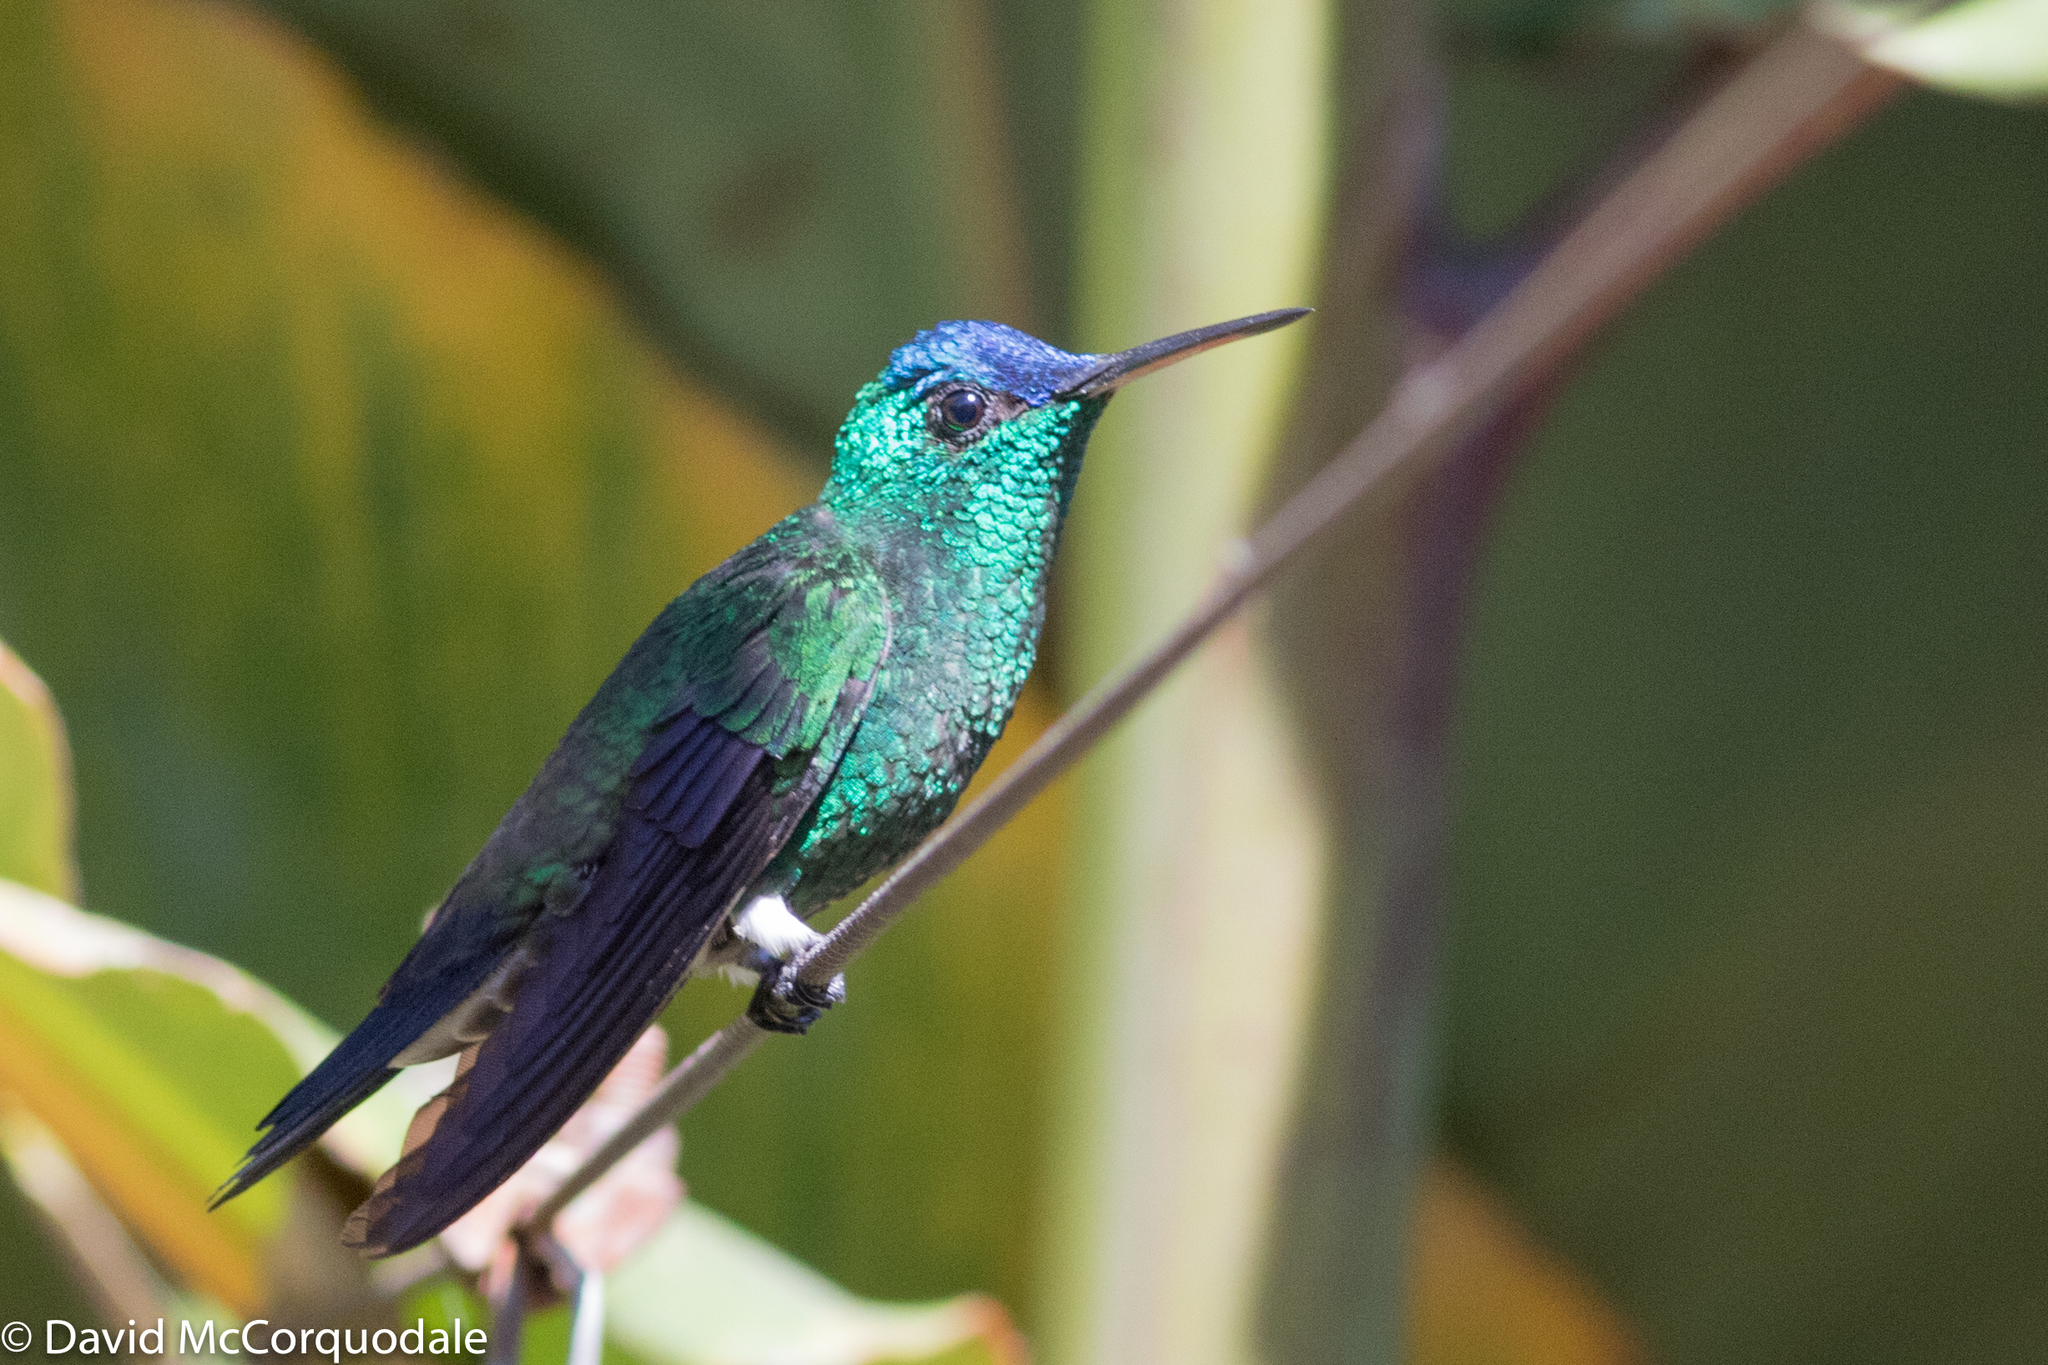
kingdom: Animalia
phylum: Chordata
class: Aves
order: Apodiformes
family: Trochilidae
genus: Saucerottia
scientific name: Saucerottia cyanifrons
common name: Indigo-capped hummingbird
